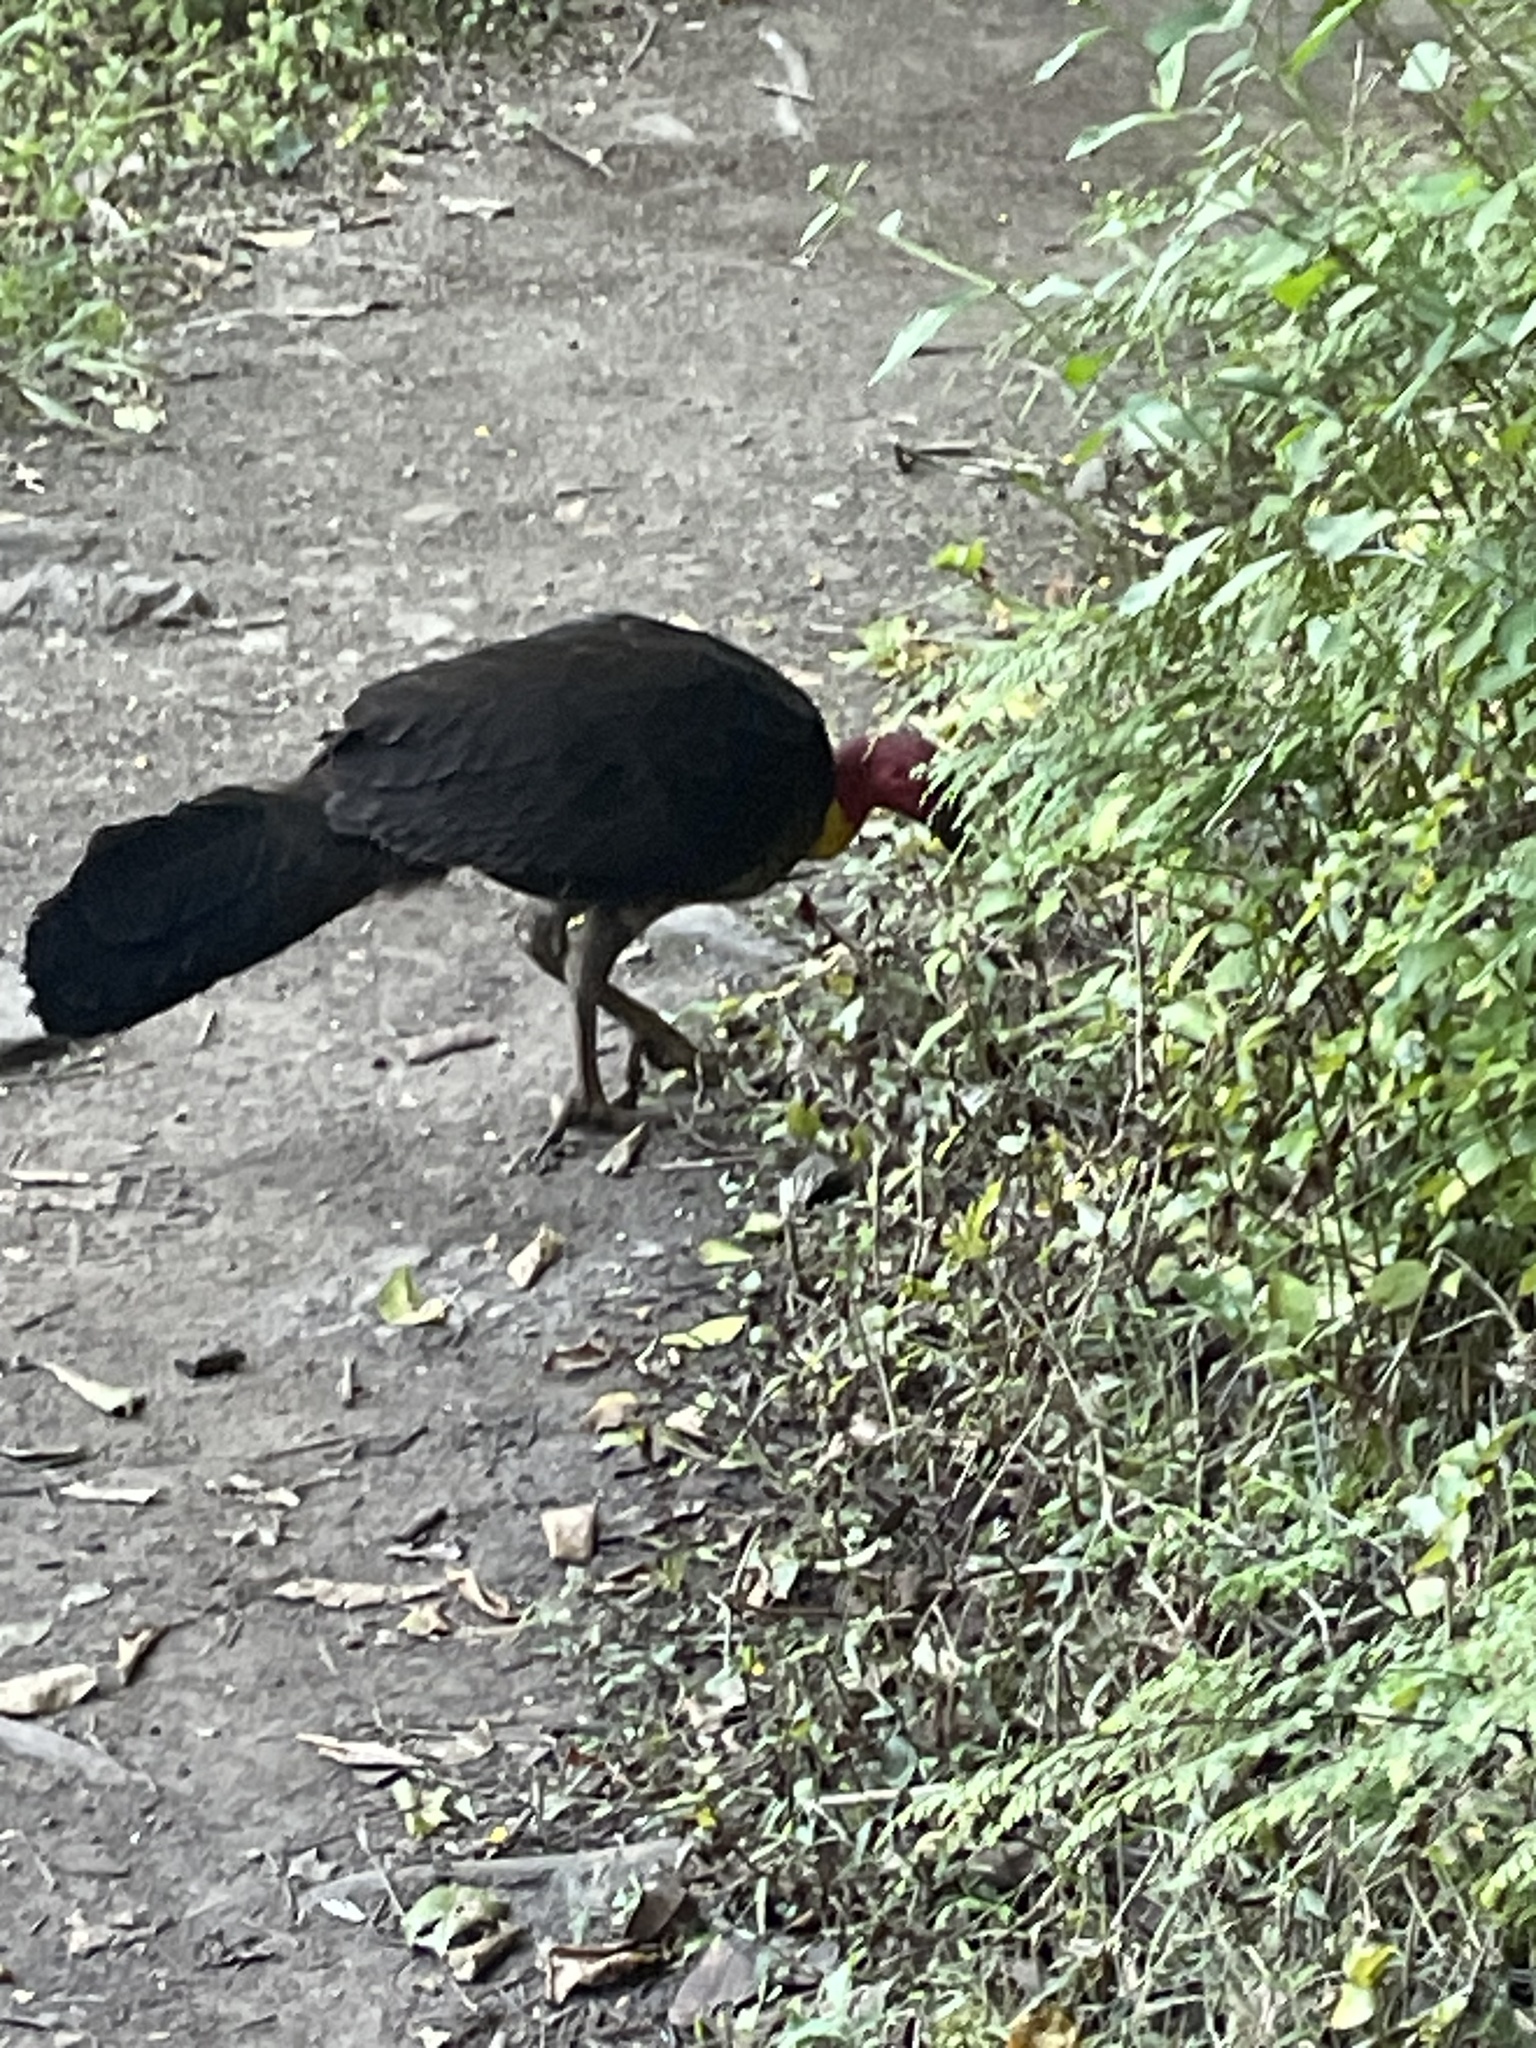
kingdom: Animalia
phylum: Chordata
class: Aves
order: Galliformes
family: Megapodiidae
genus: Alectura
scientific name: Alectura lathami
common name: Australian brushturkey
